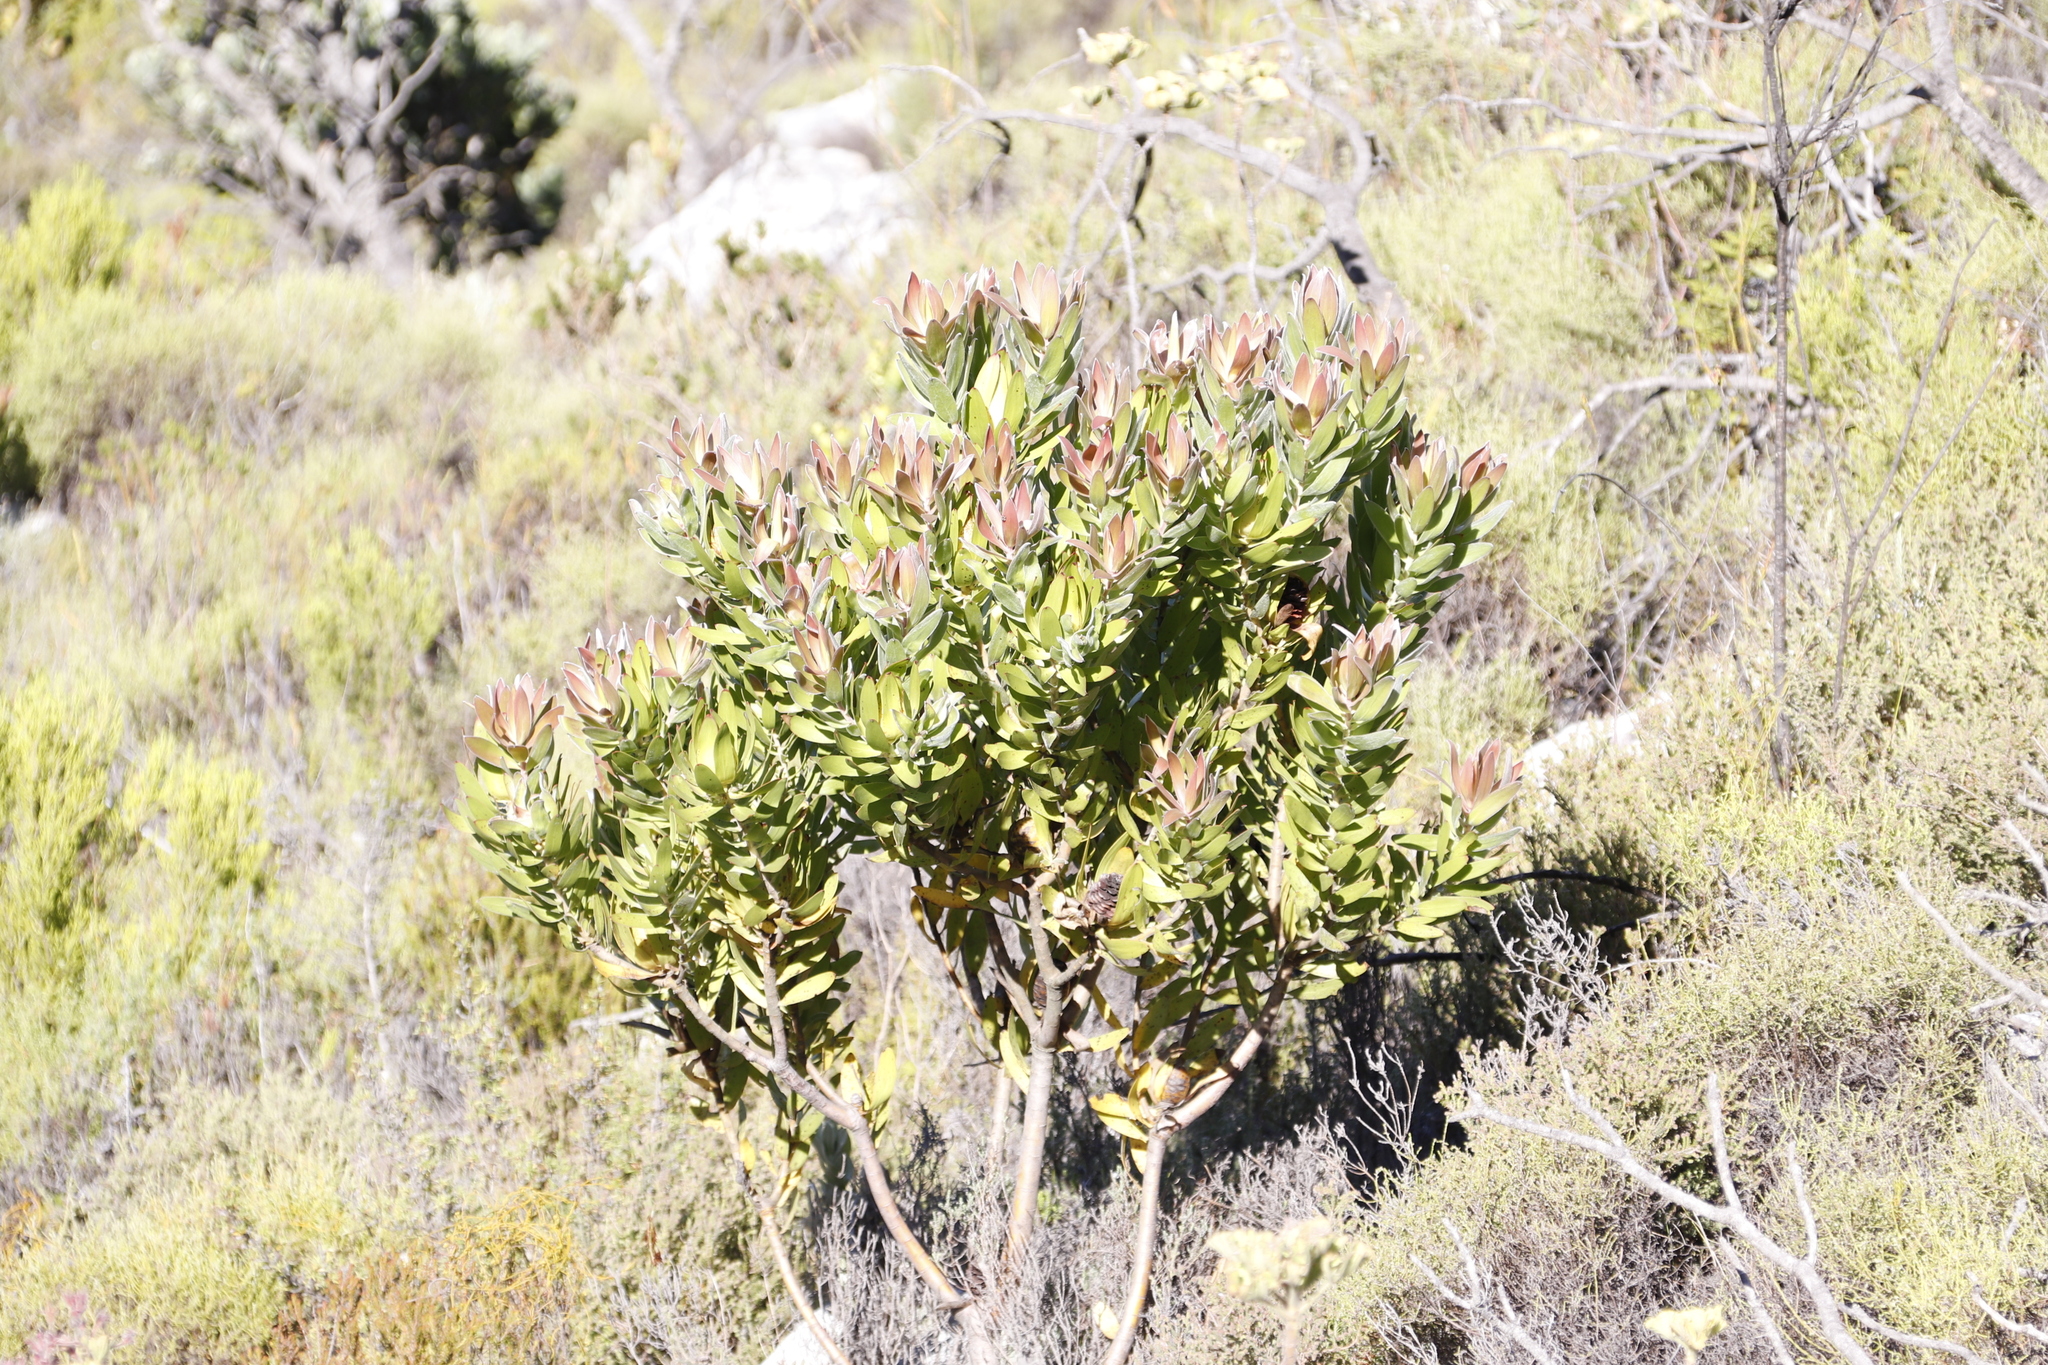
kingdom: Plantae
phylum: Tracheophyta
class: Magnoliopsida
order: Proteales
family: Proteaceae
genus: Leucadendron
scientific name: Leucadendron laureolum
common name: Golden sunshinebush
